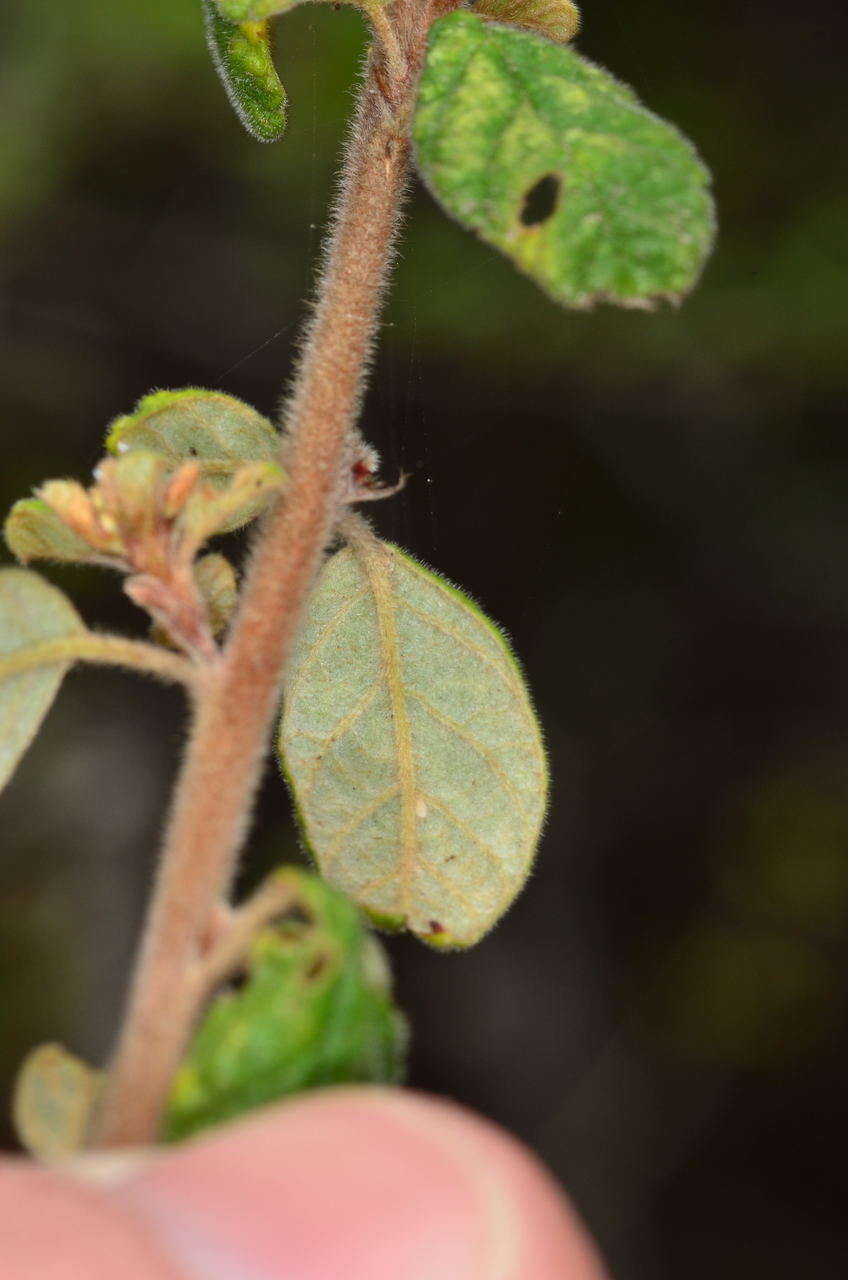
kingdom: Plantae
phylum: Tracheophyta
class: Magnoliopsida
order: Rosales
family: Rhamnaceae
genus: Pomaderris
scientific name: Pomaderris prunifolia
